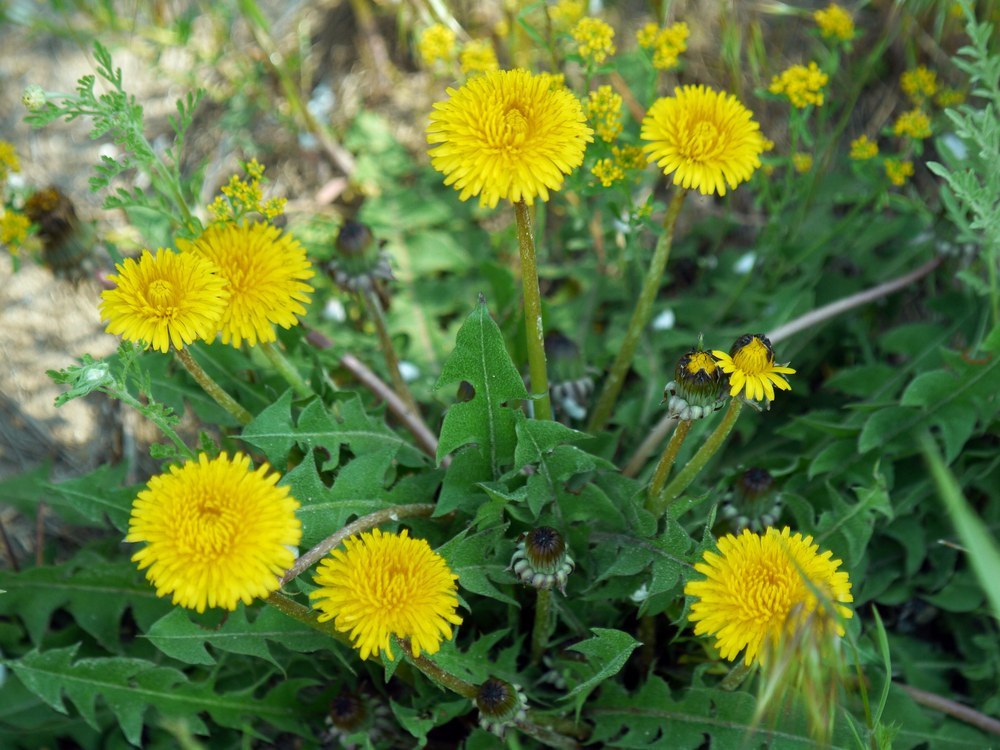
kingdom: Plantae
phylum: Tracheophyta
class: Magnoliopsida
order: Asterales
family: Asteraceae
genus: Taraxacum
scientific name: Taraxacum officinale
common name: Common dandelion
